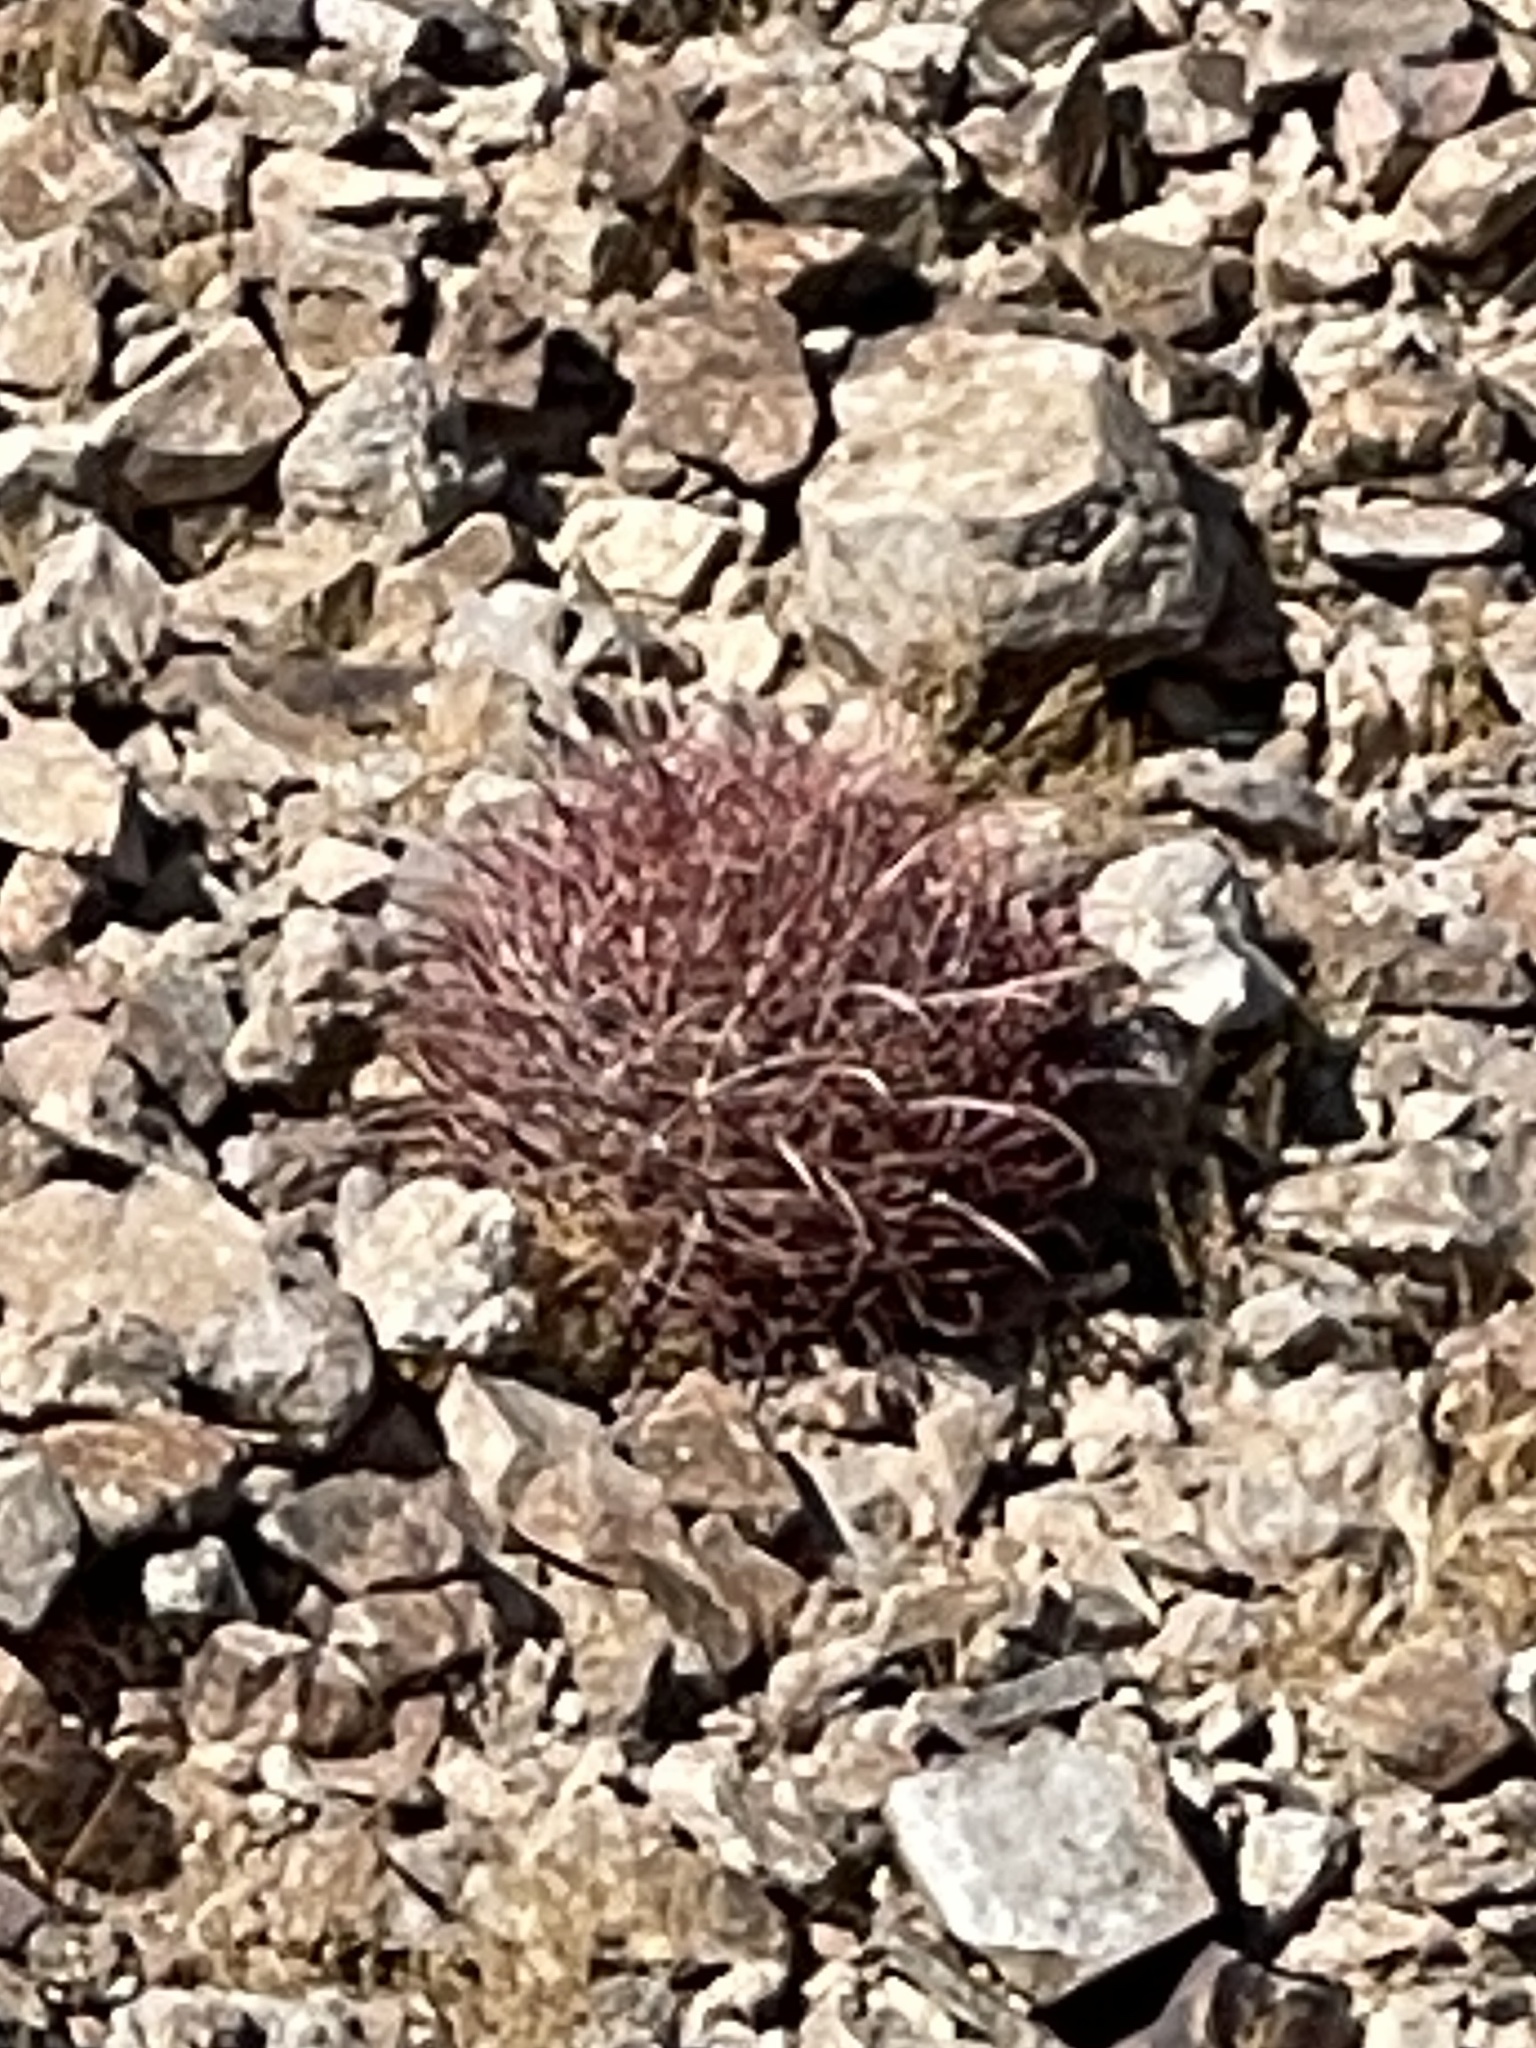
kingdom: Plantae
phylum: Tracheophyta
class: Magnoliopsida
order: Caryophyllales
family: Cactaceae
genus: Ferocactus
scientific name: Ferocactus cylindraceus
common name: California barrel cactus
